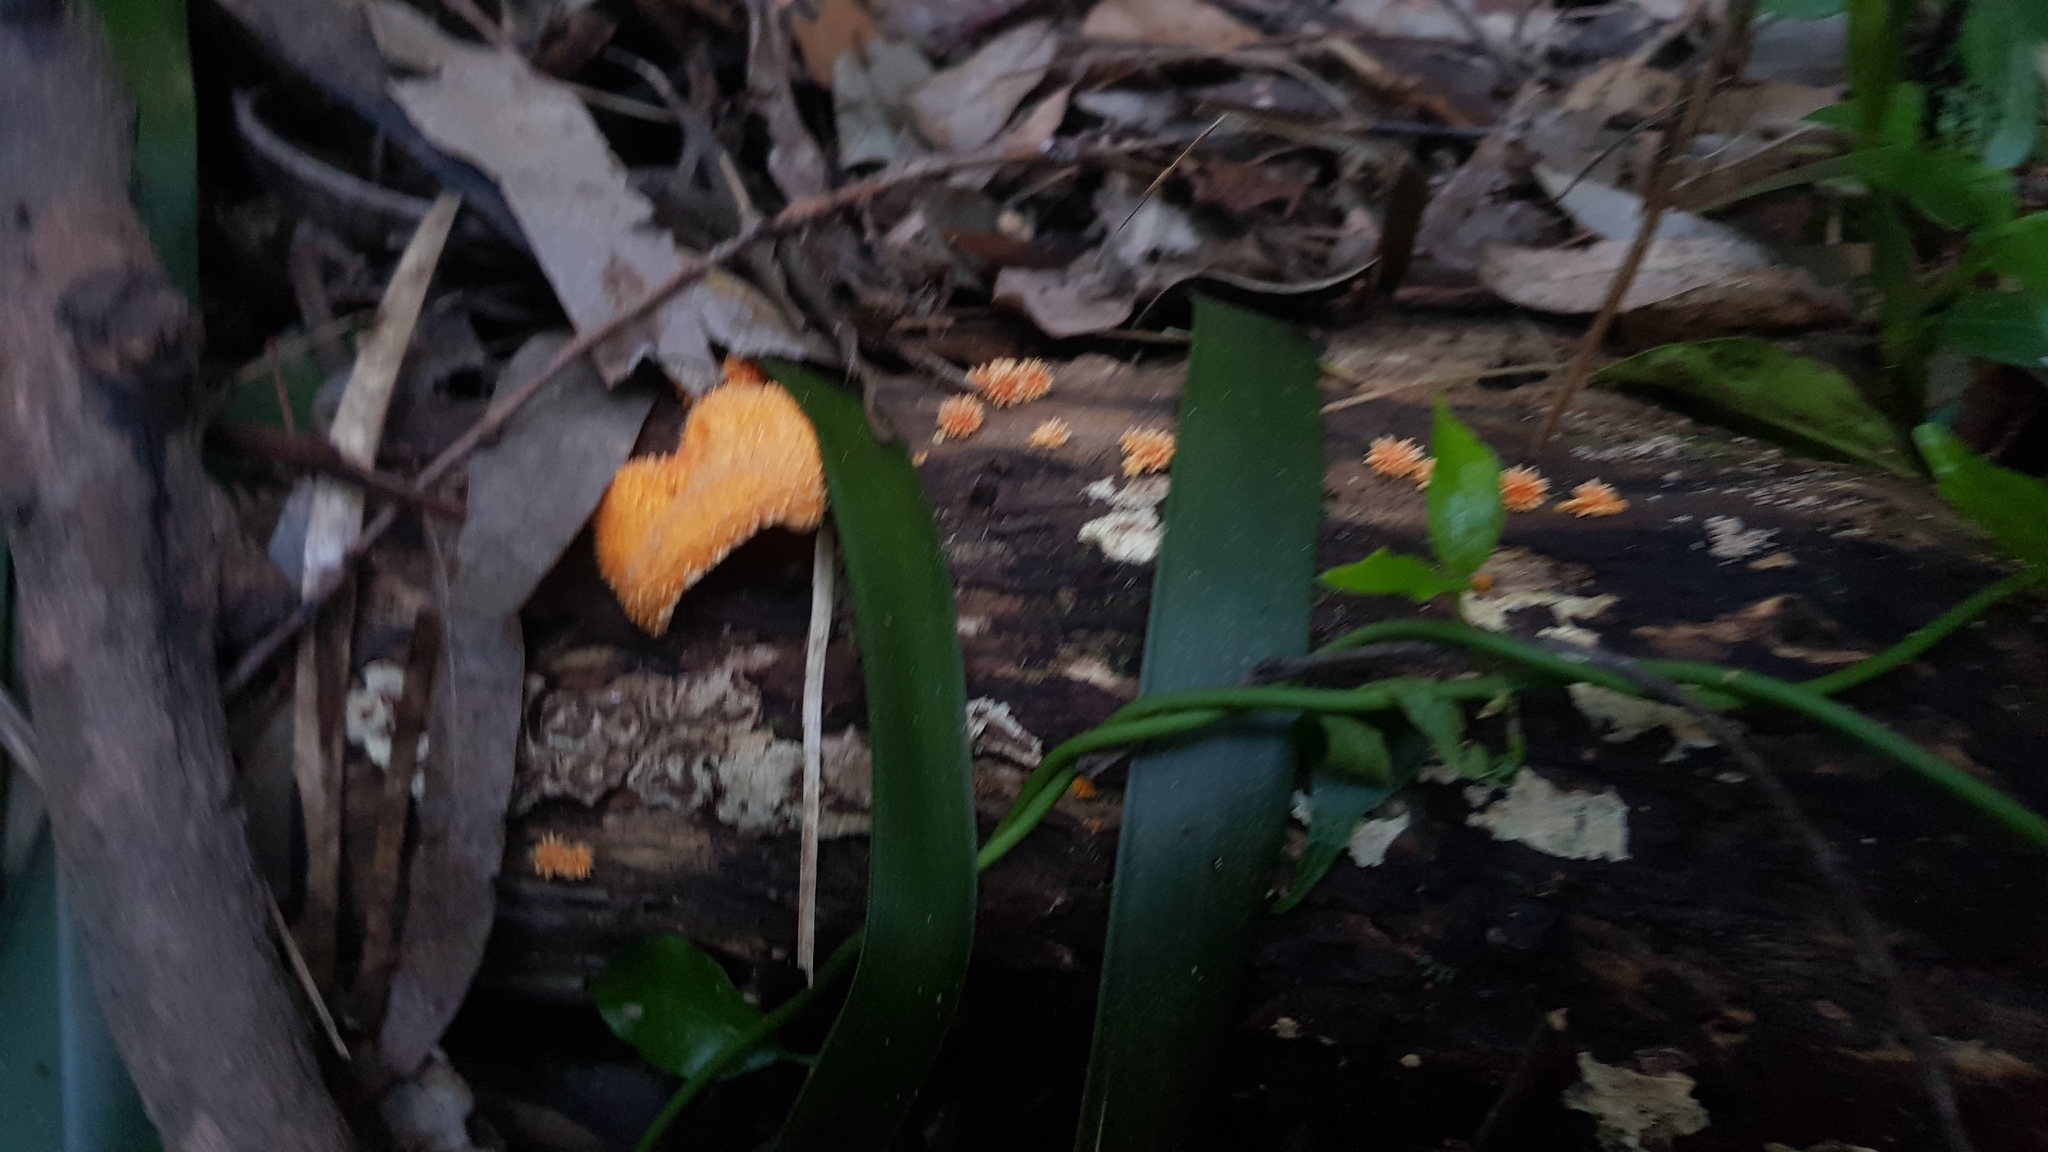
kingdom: Fungi
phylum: Basidiomycota
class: Agaricomycetes
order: Agaricales
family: Physalacriaceae
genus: Cyptotrama
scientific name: Cyptotrama asprata
